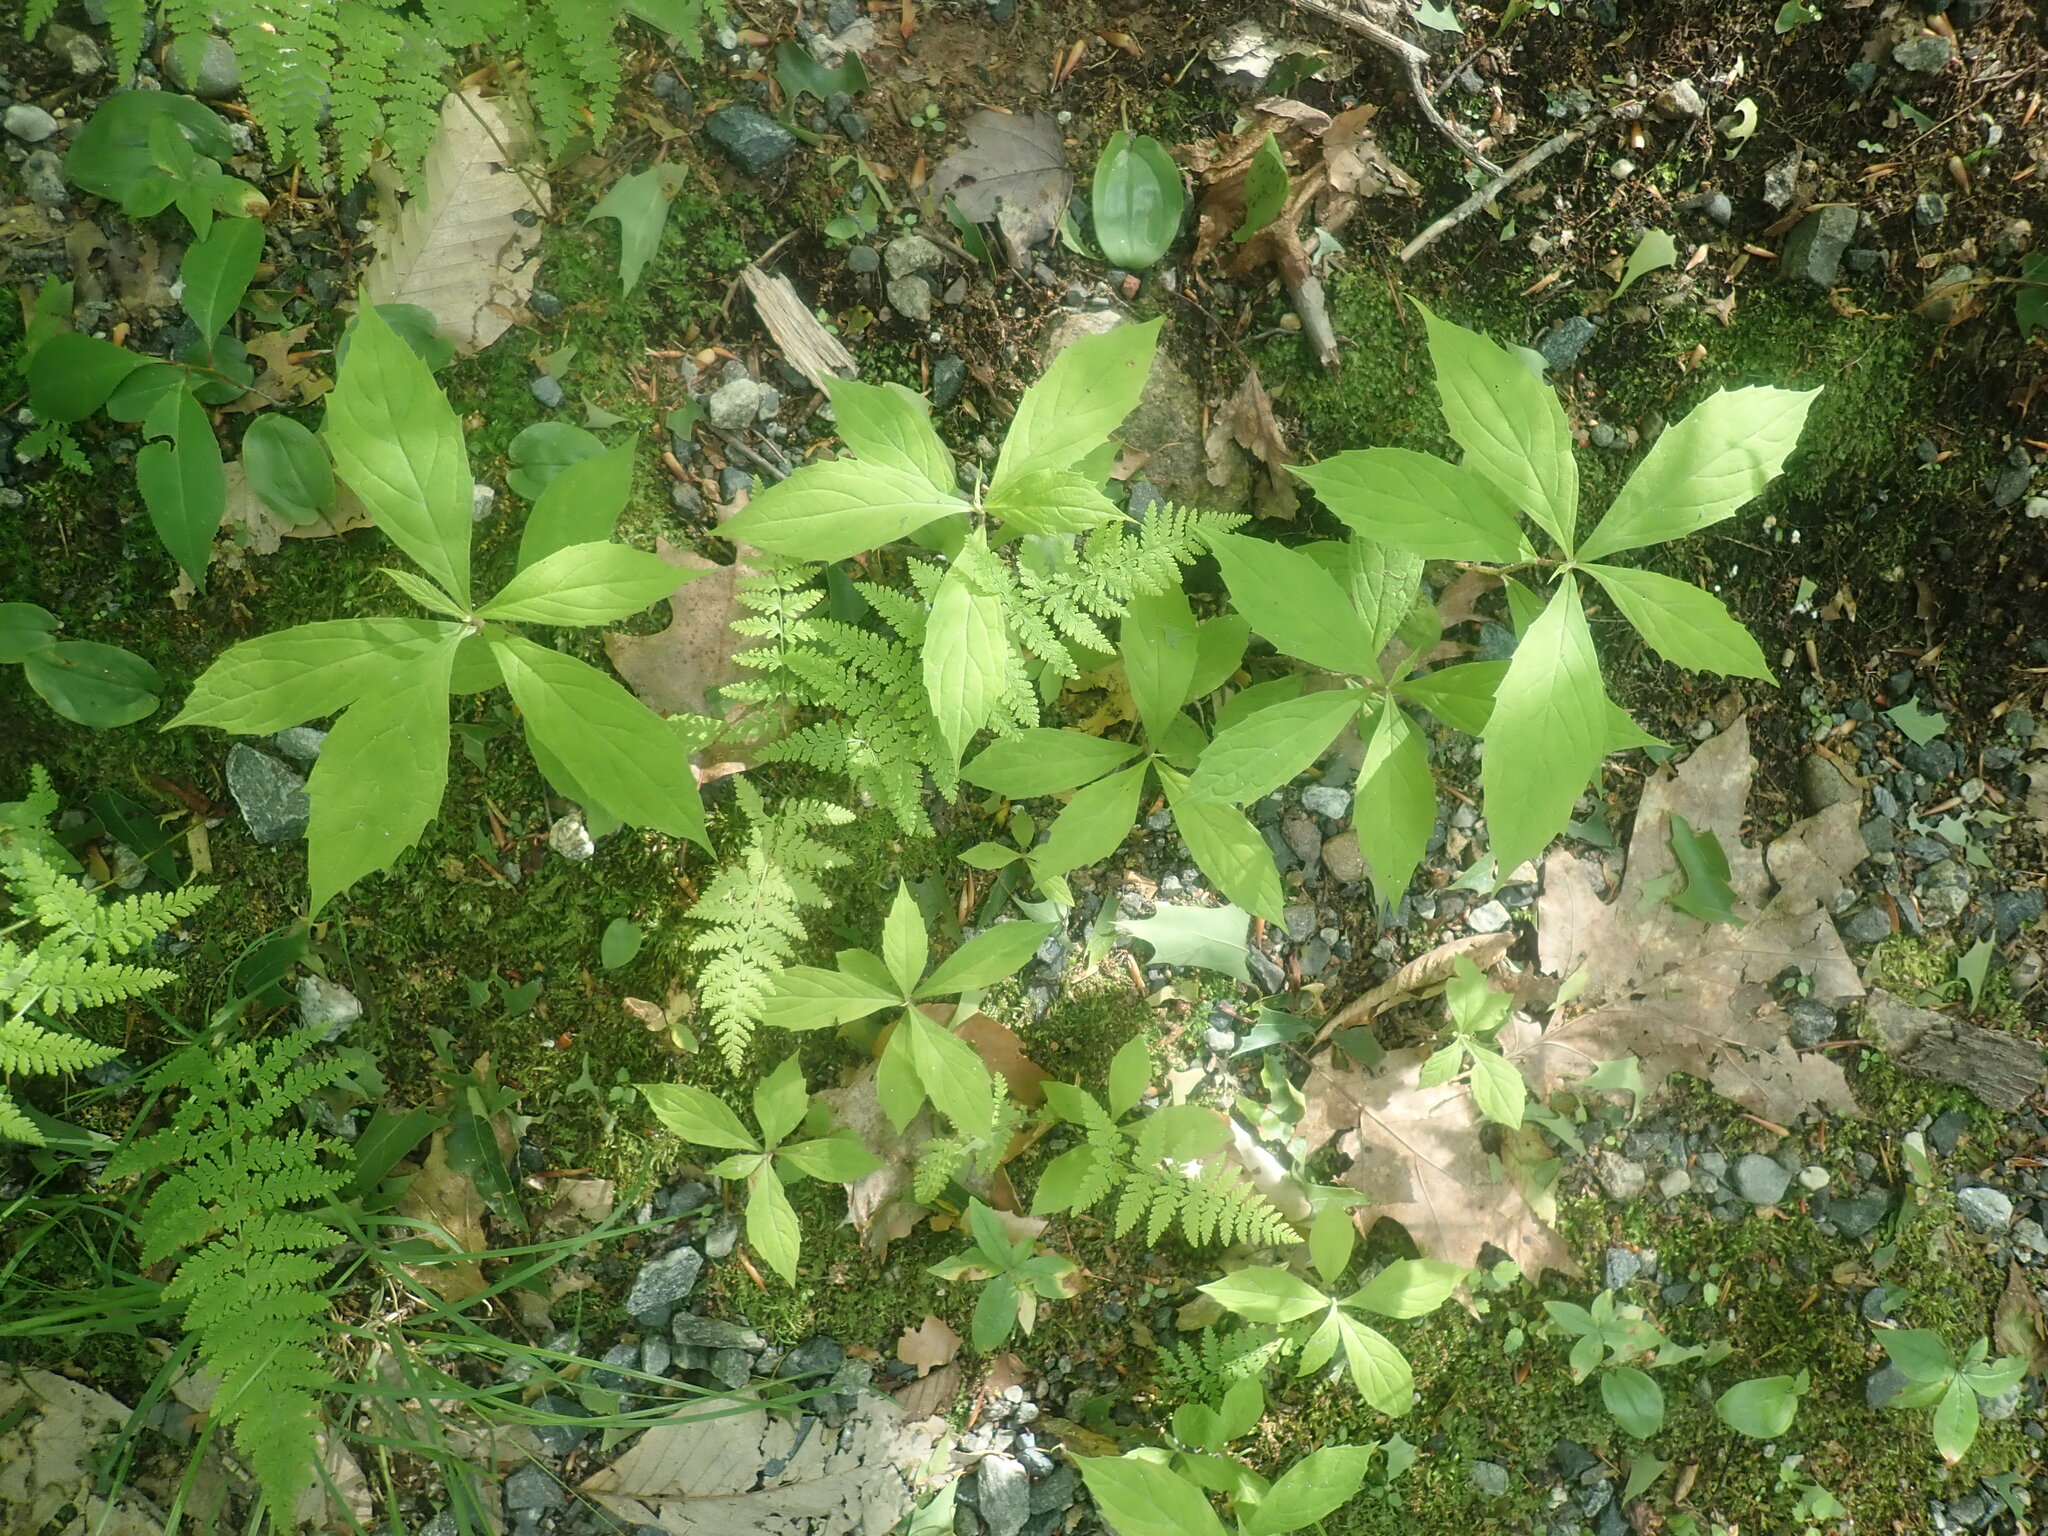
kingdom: Plantae
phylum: Tracheophyta
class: Magnoliopsida
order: Asterales
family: Asteraceae
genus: Oclemena
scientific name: Oclemena acuminata
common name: Mountain aster
